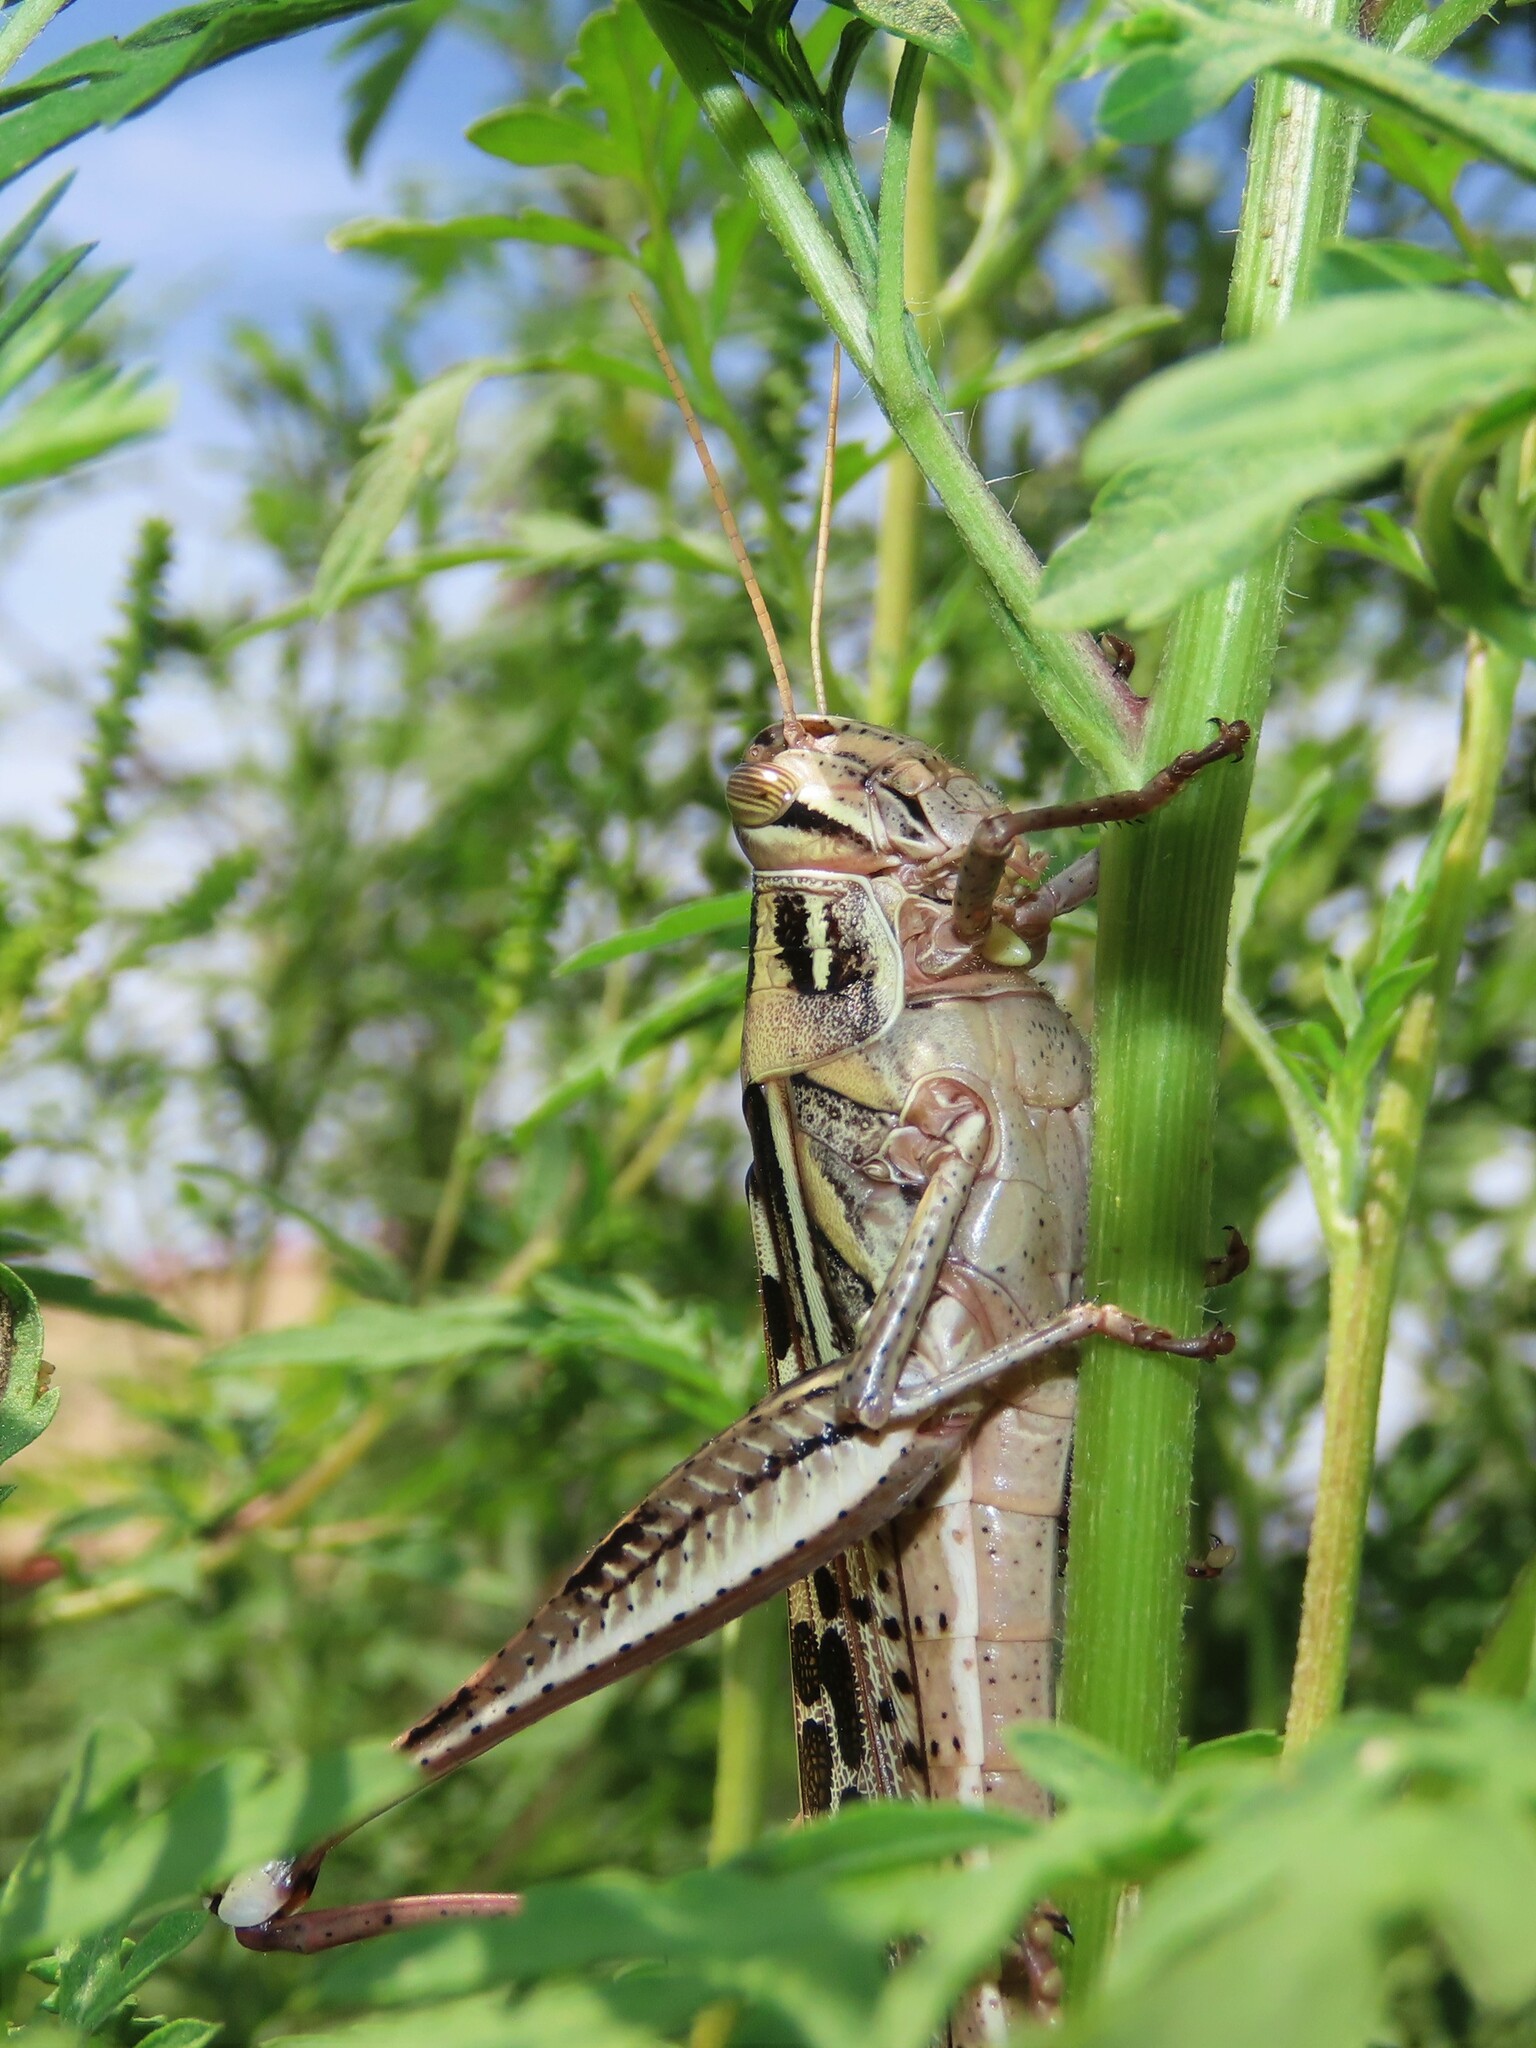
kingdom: Animalia
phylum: Arthropoda
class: Insecta
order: Orthoptera
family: Acrididae
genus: Schistocerca
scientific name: Schistocerca serialis
